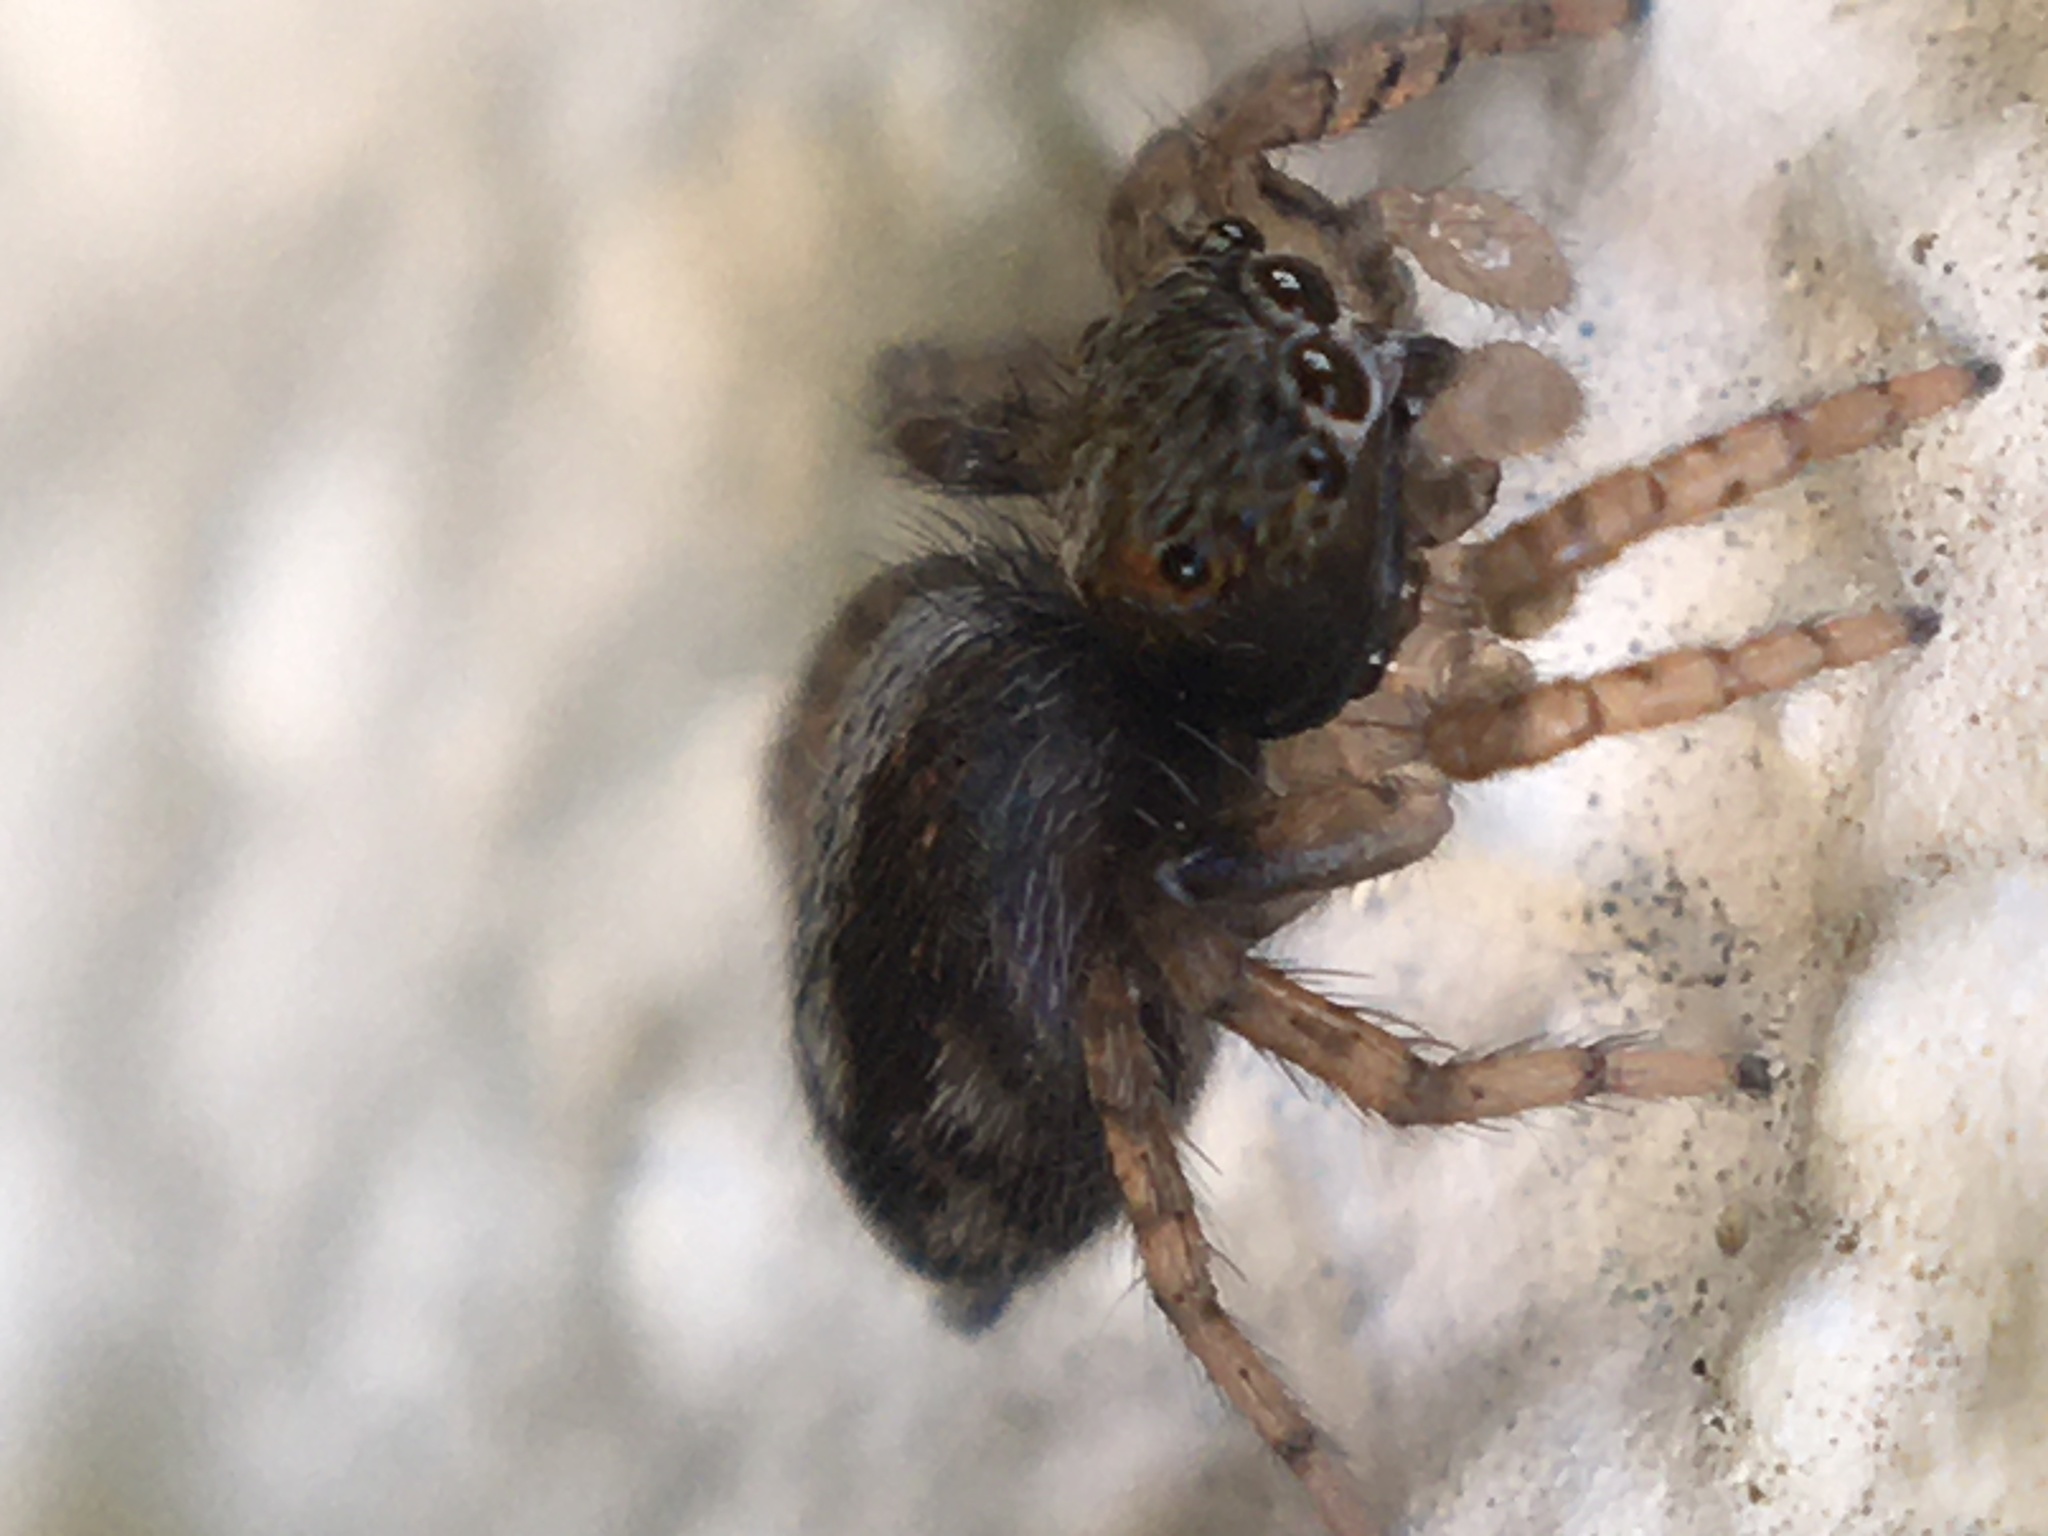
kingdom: Animalia
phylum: Arthropoda
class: Arachnida
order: Araneae
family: Salticidae
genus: Saitis
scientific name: Saitis barbipes
